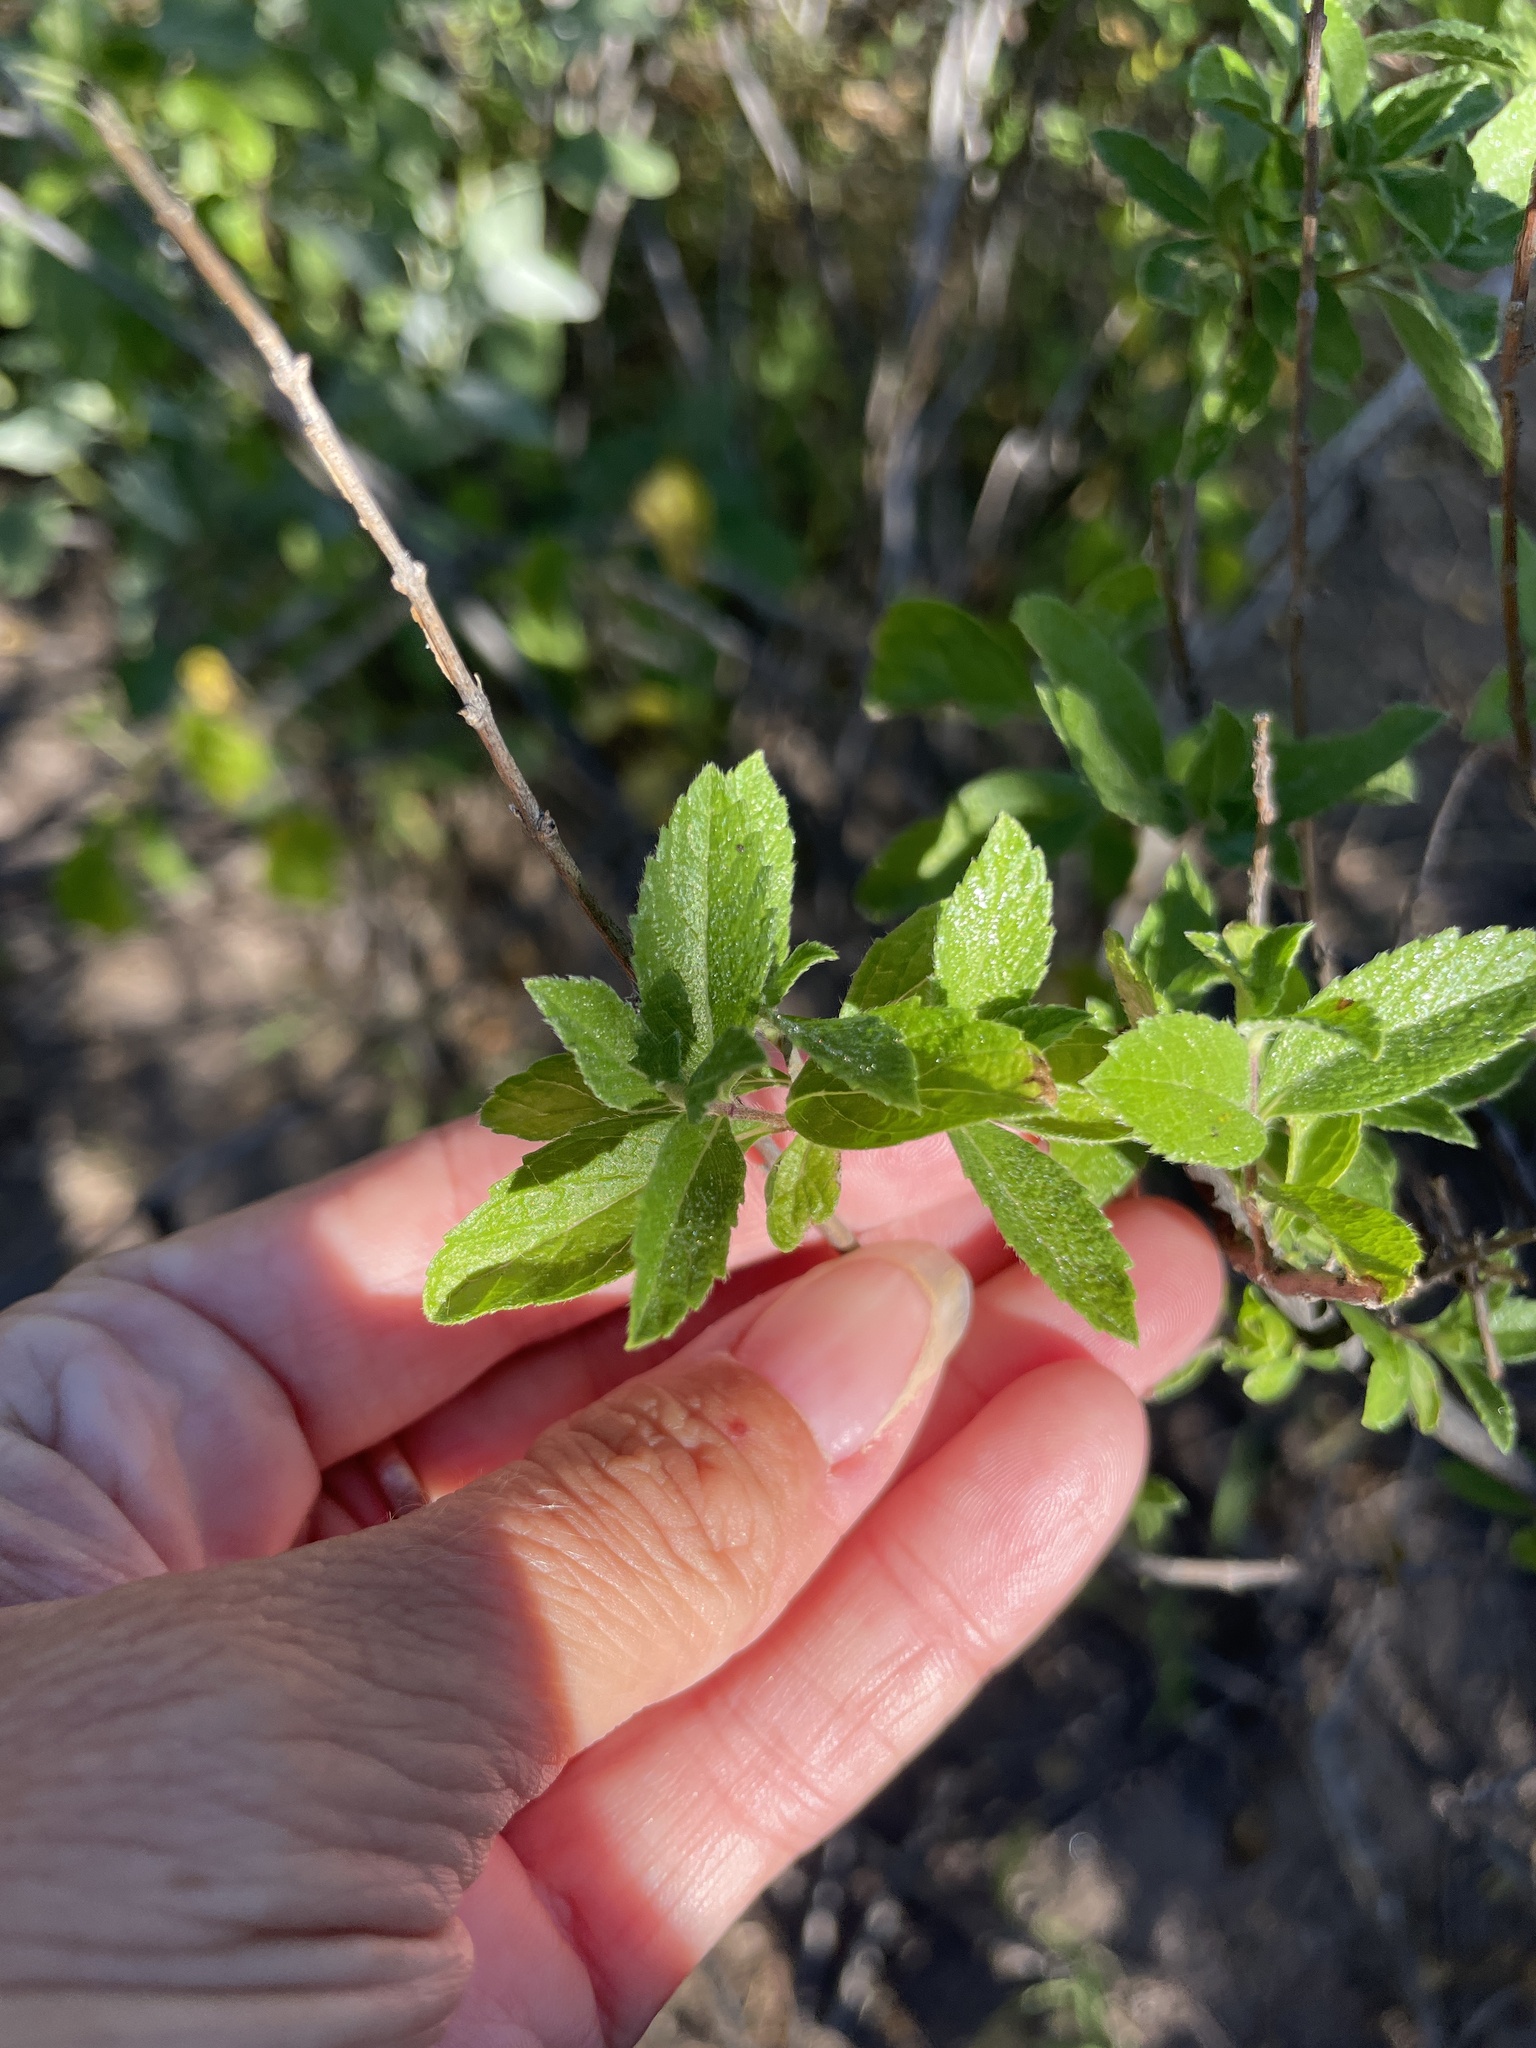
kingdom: Plantae
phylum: Tracheophyta
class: Magnoliopsida
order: Lamiales
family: Verbenaceae
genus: Lippia
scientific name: Lippia alba
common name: Bushy matgrass
